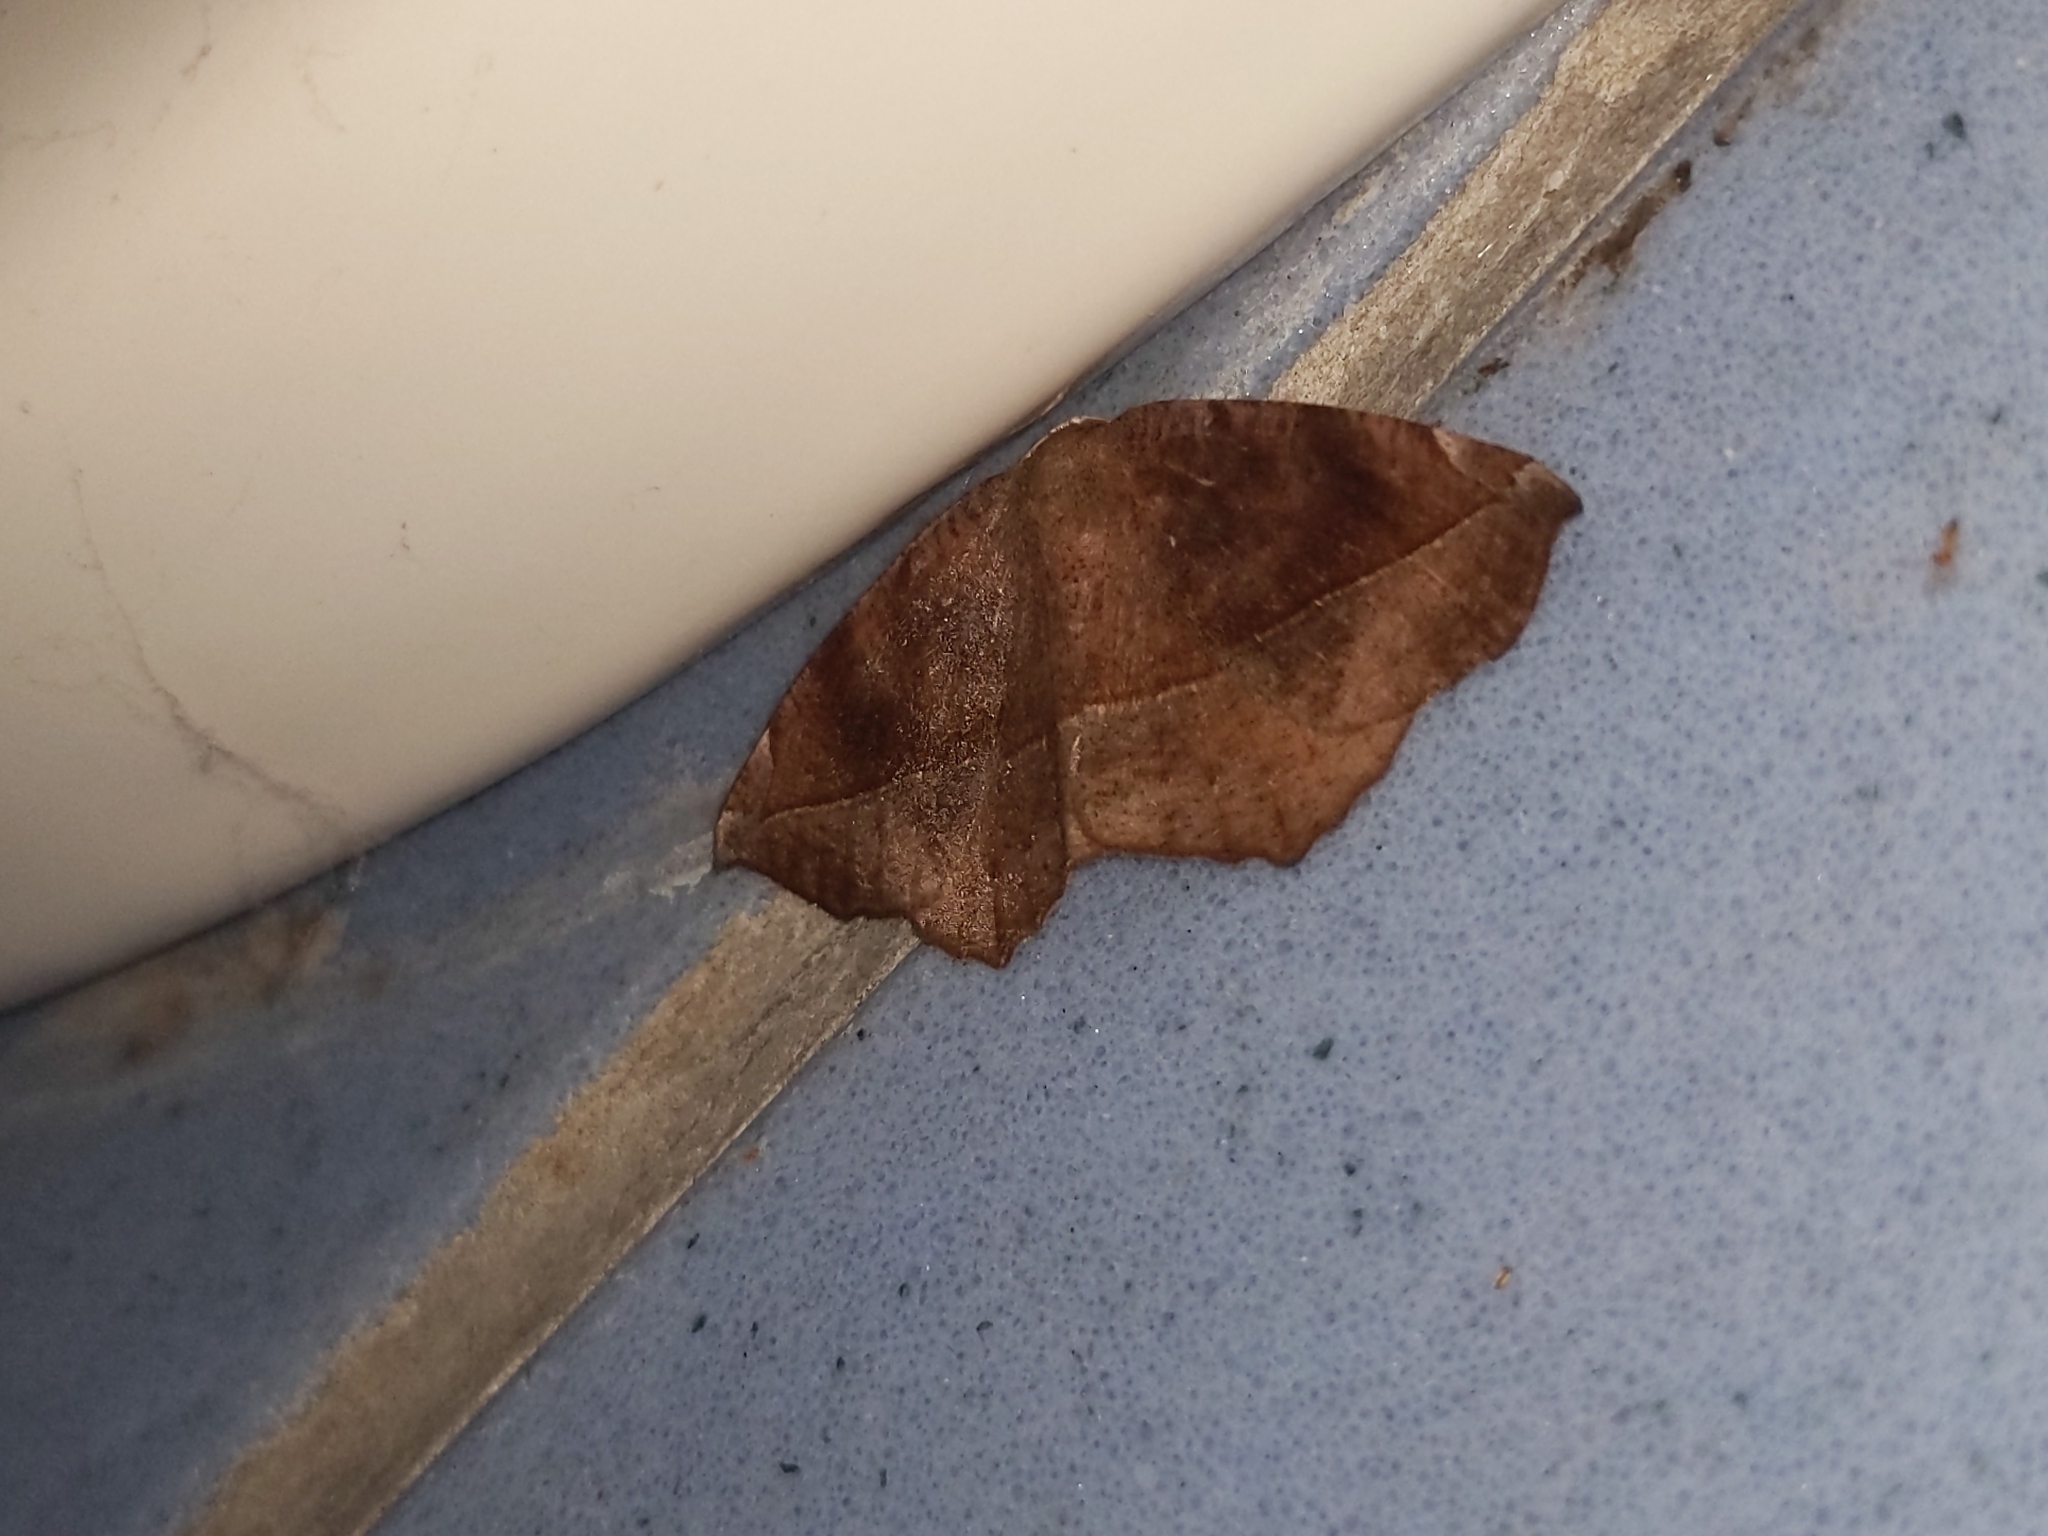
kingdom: Animalia
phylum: Arthropoda
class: Insecta
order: Lepidoptera
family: Geometridae
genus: Eutrapela
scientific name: Eutrapela clemataria
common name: Curved-toothed geometer
